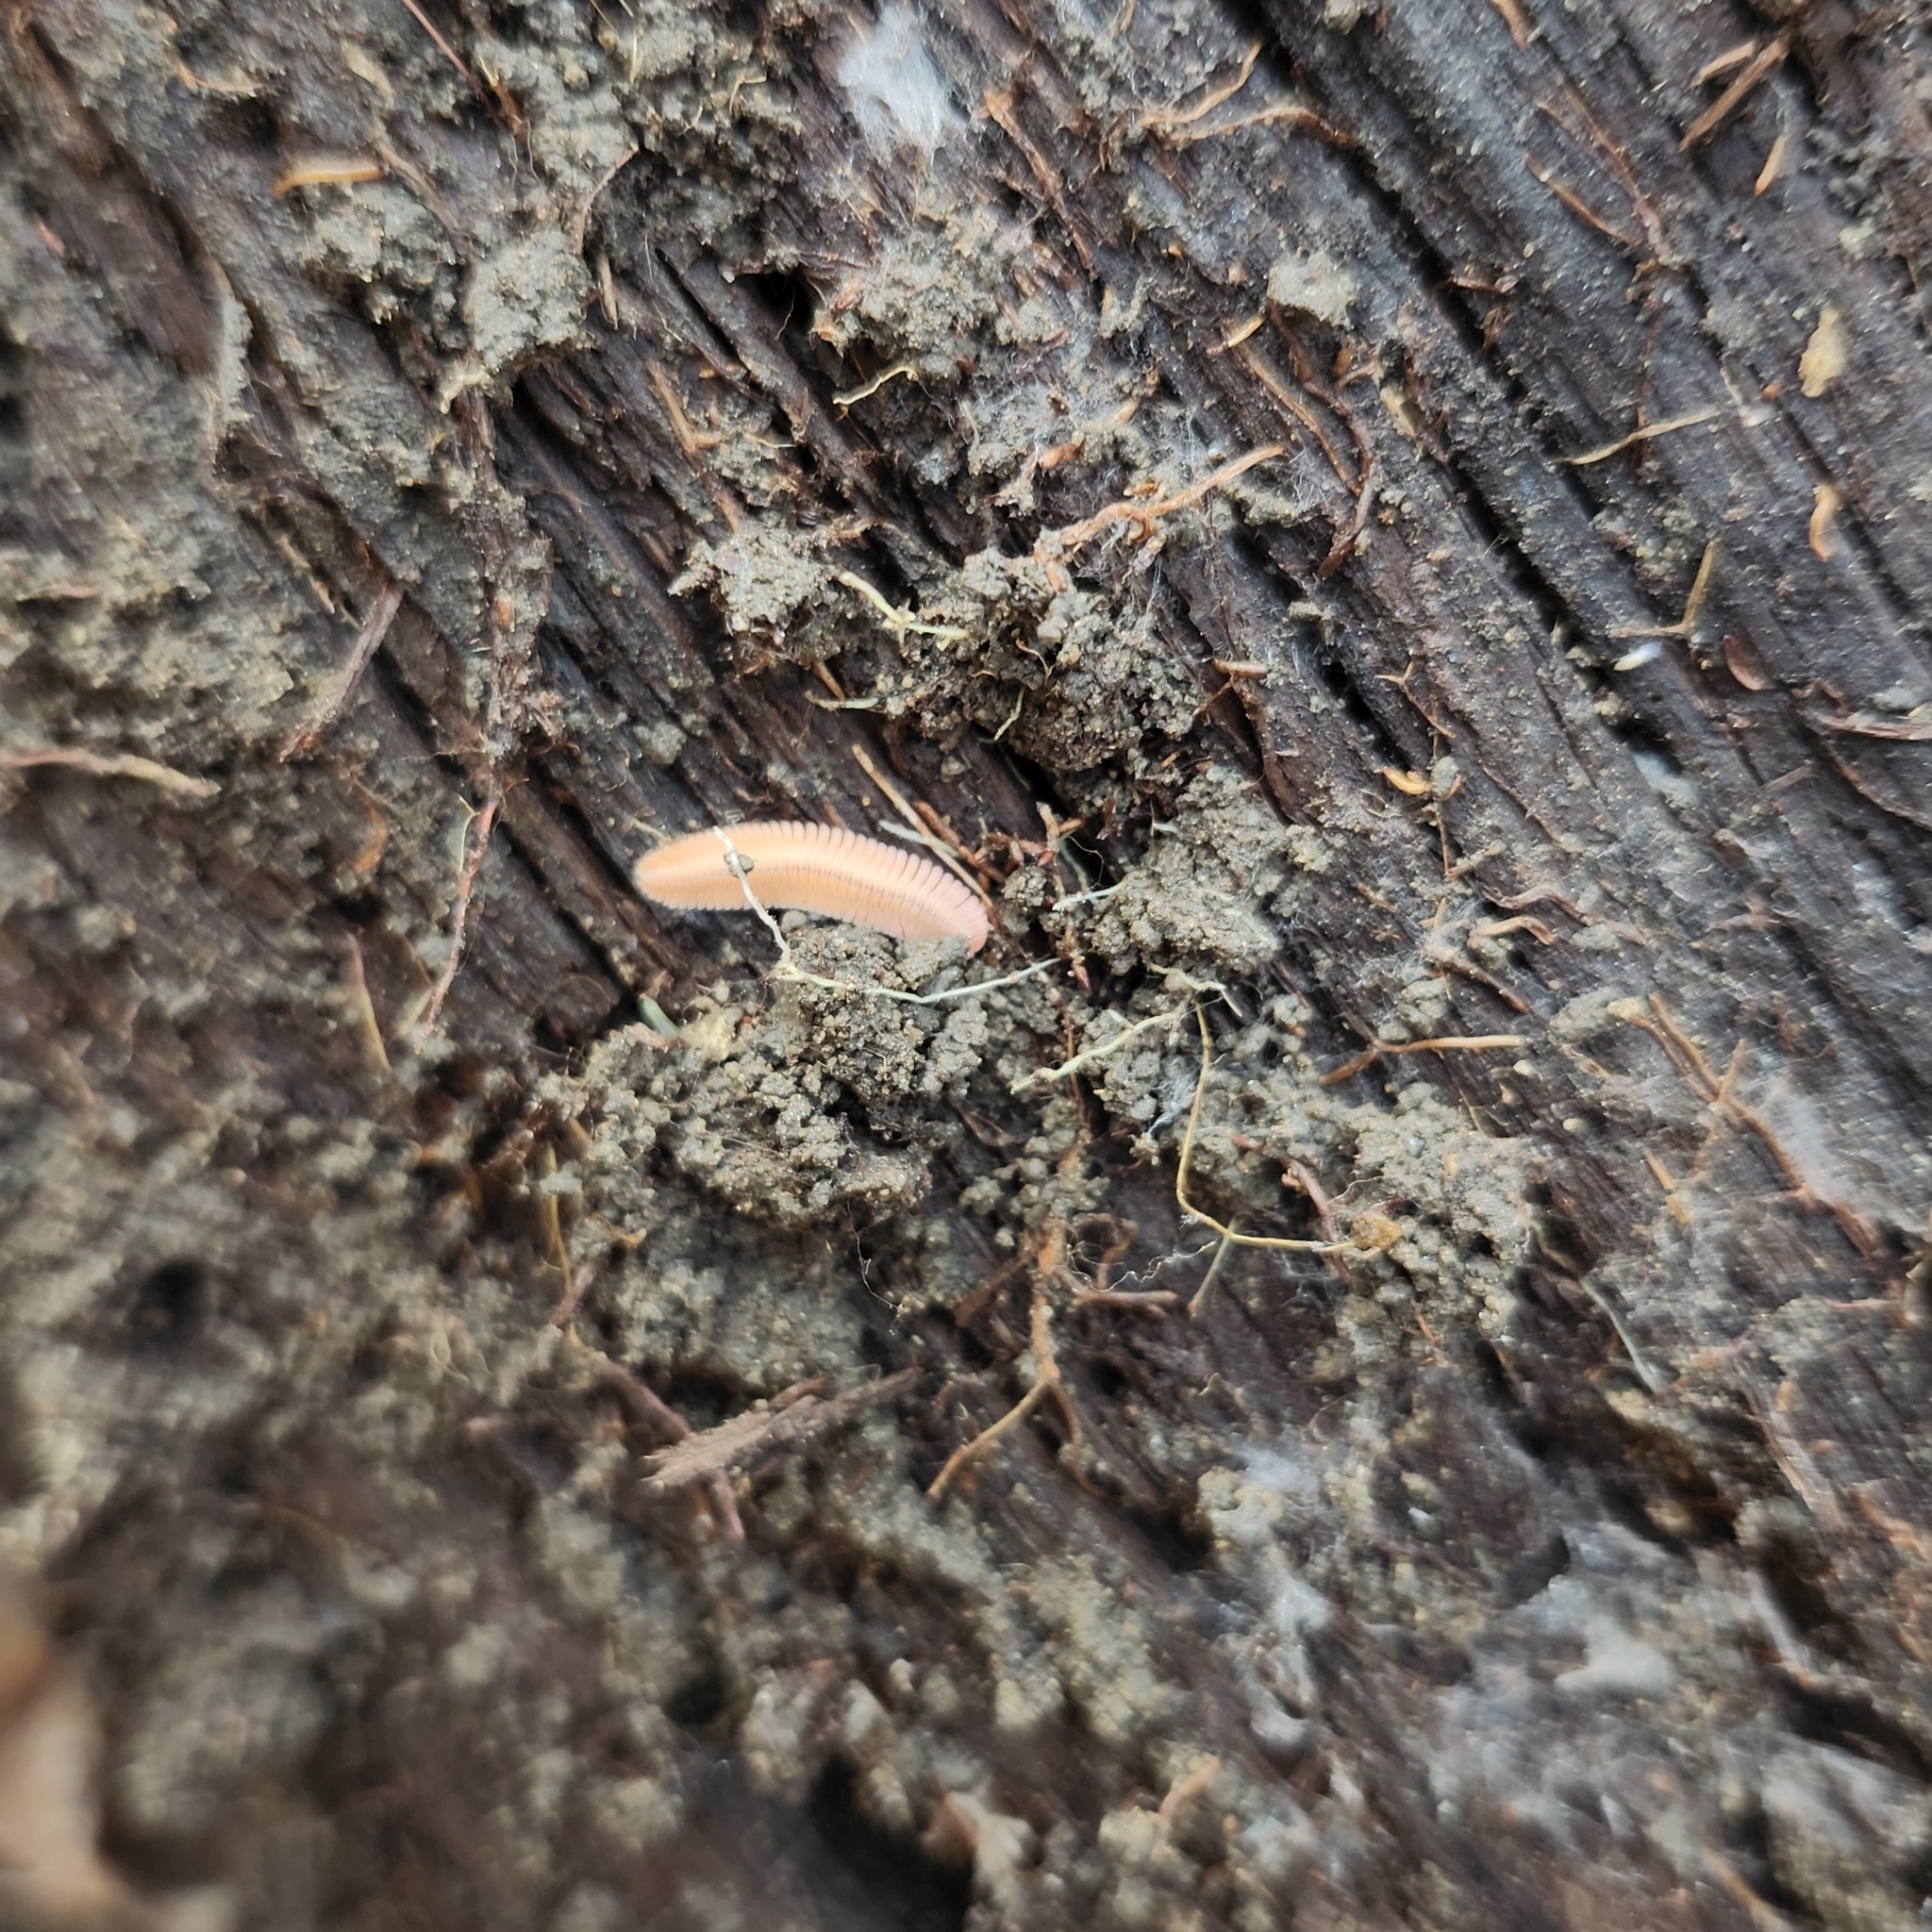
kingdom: Animalia
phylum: Arthropoda
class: Diplopoda
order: Platydesmida
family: Andrognathidae
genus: Brachycybe
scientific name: Brachycybe lecontii
